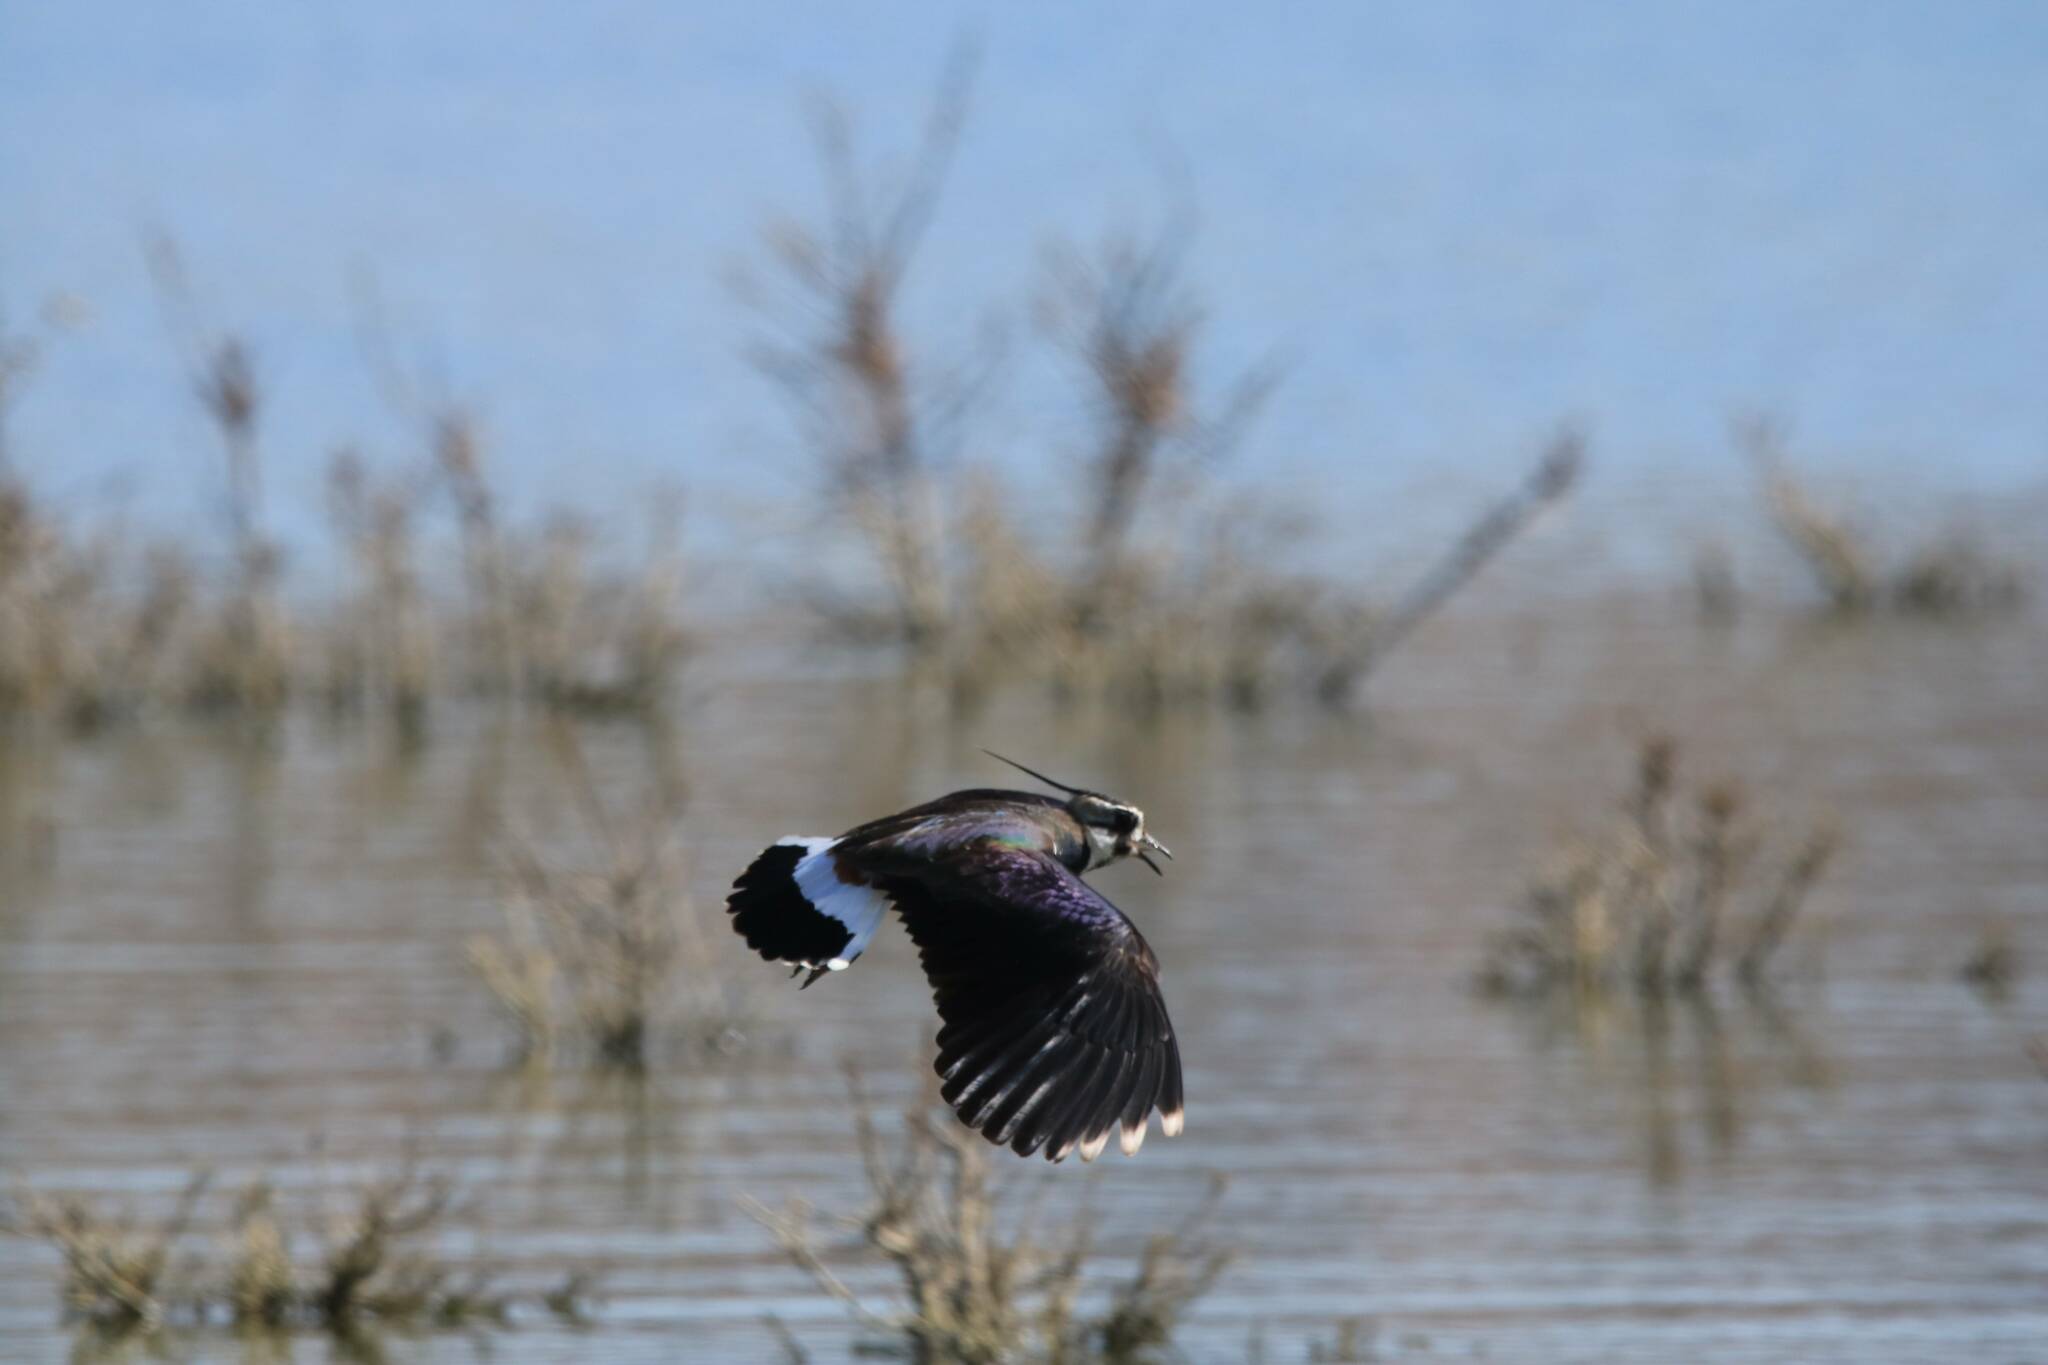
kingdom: Animalia
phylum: Chordata
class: Aves
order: Charadriiformes
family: Charadriidae
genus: Vanellus
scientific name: Vanellus vanellus
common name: Northern lapwing
